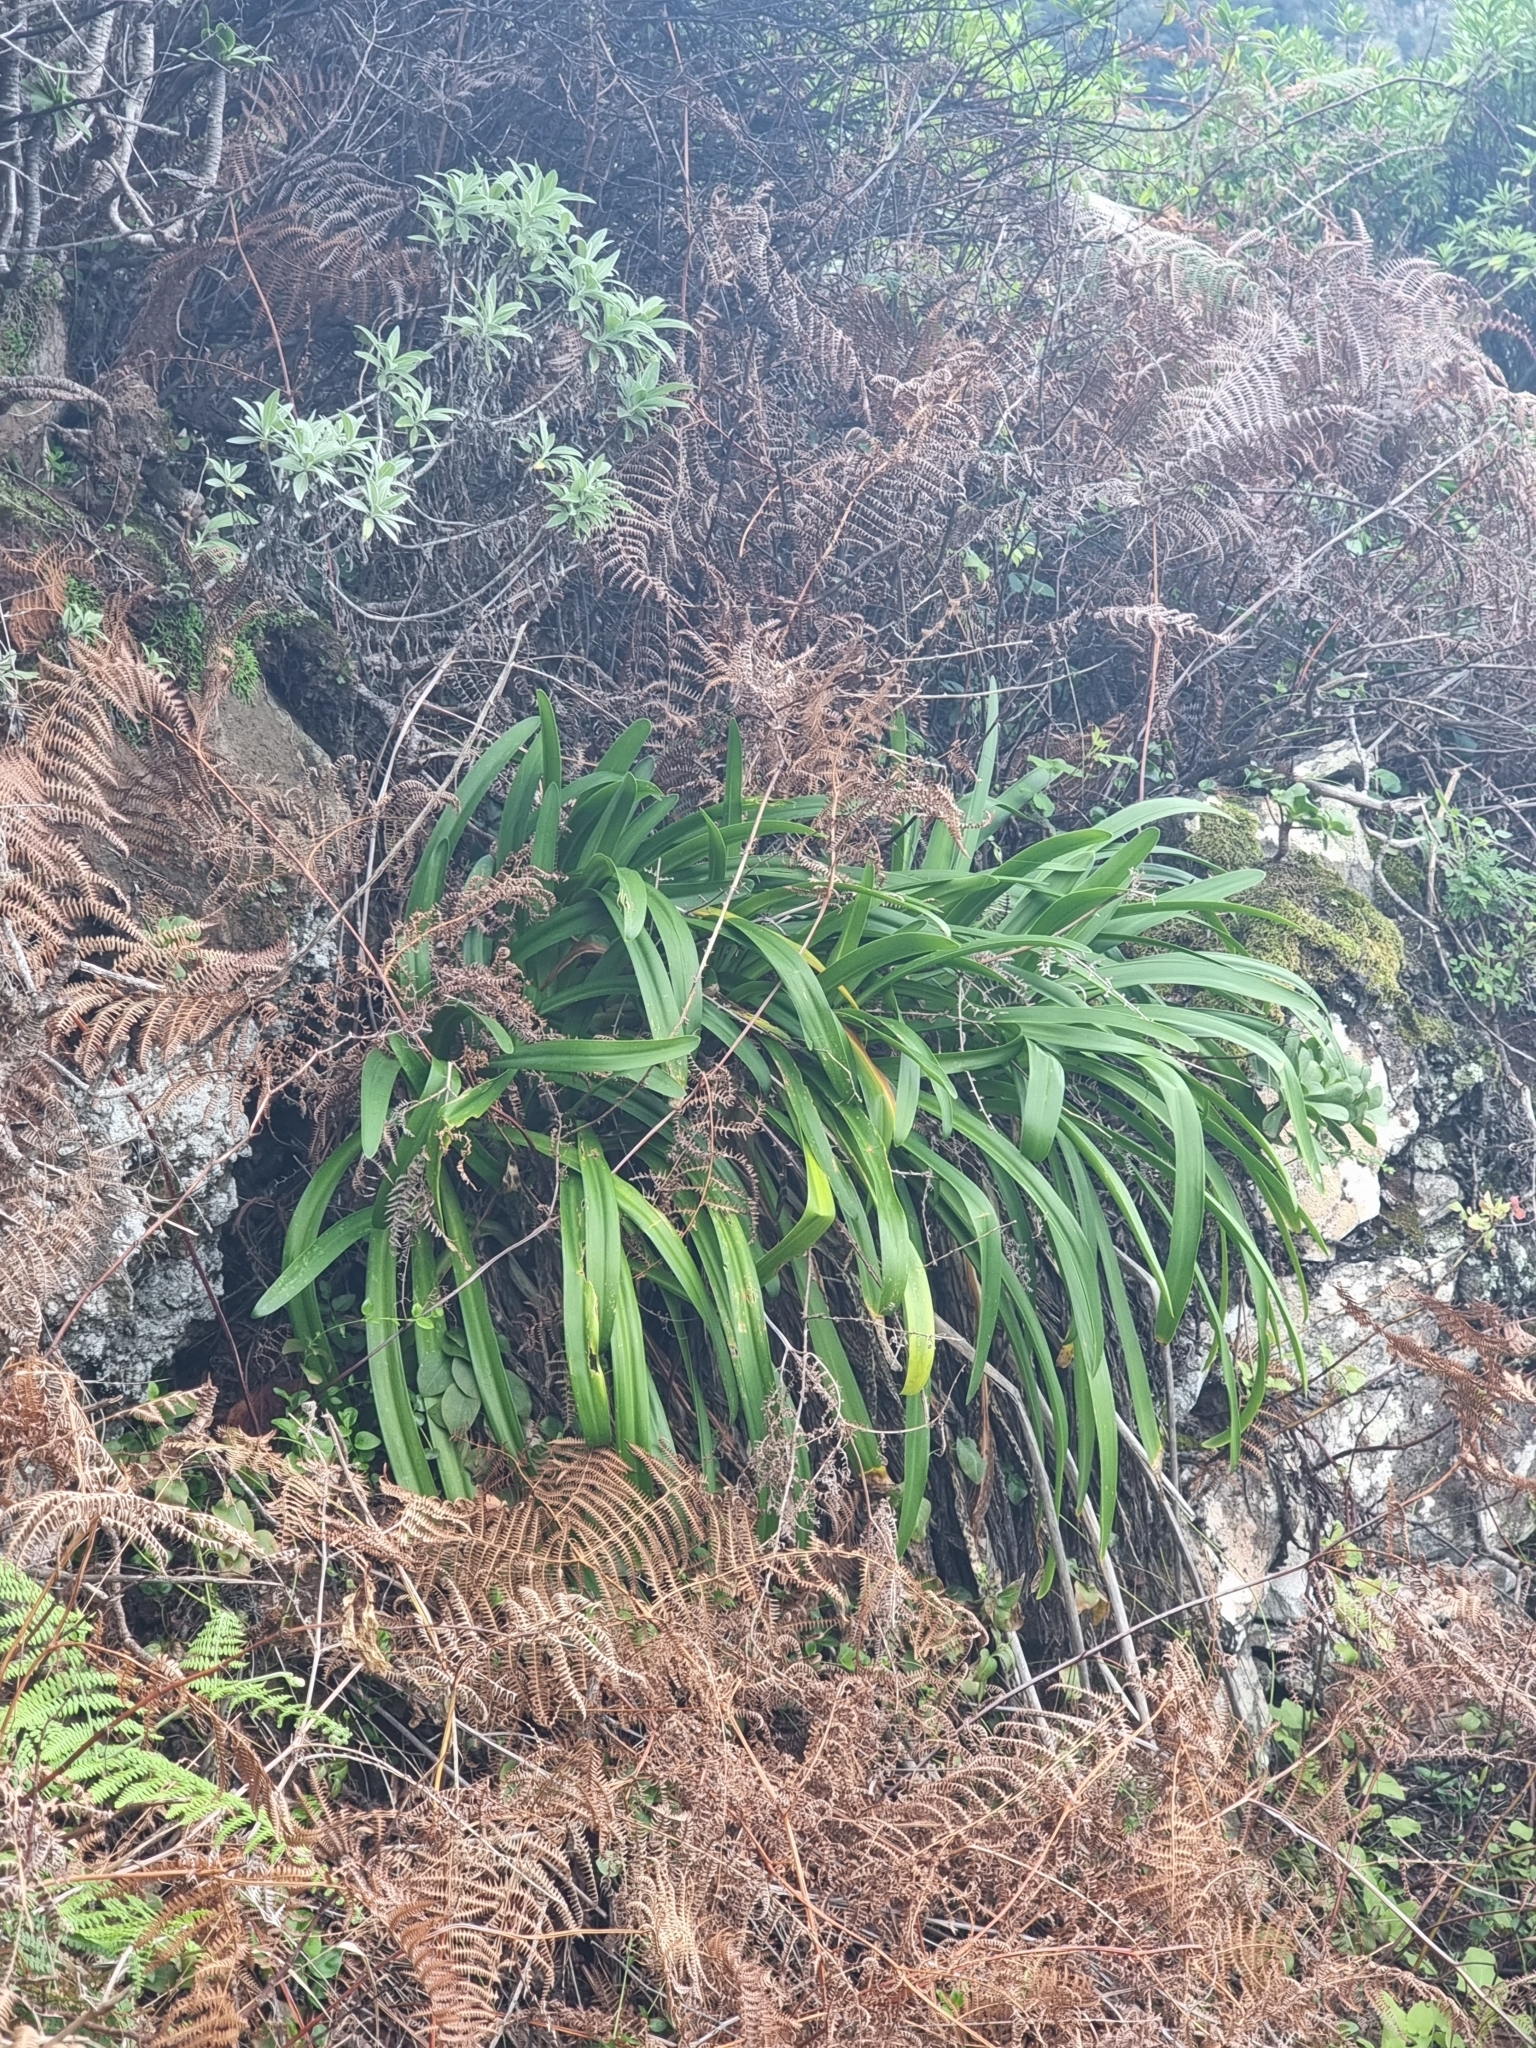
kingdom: Plantae
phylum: Tracheophyta
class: Liliopsida
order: Asparagales
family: Amaryllidaceae
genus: Agapanthus
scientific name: Agapanthus praecox
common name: African-lily
